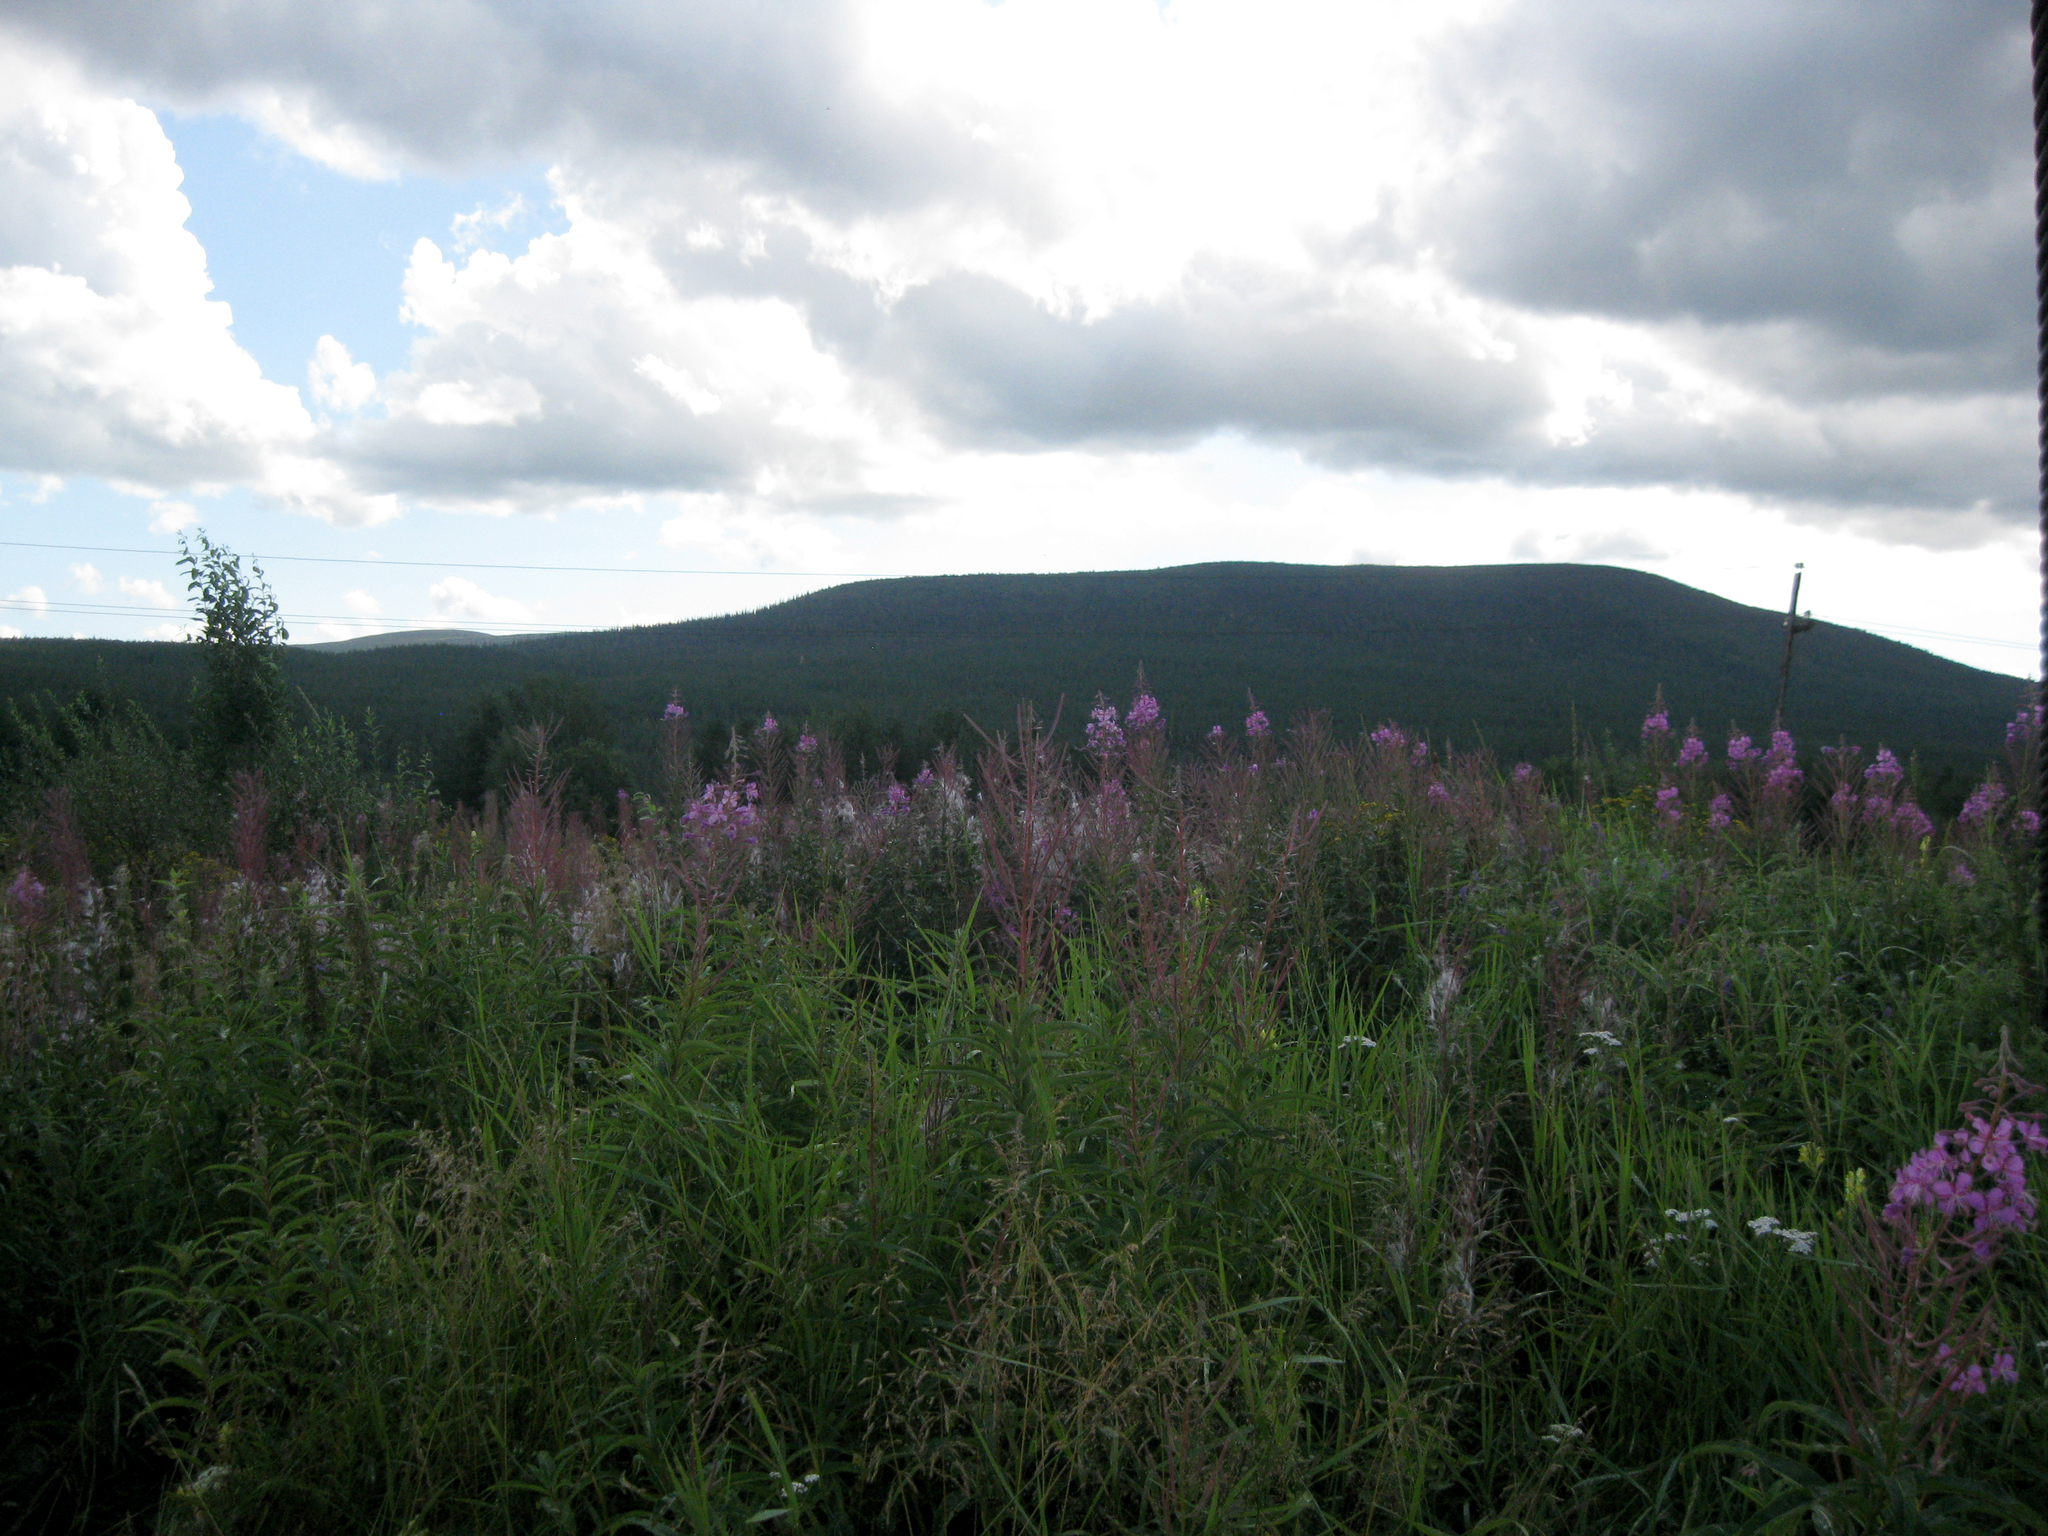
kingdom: Plantae
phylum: Tracheophyta
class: Magnoliopsida
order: Myrtales
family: Onagraceae
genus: Chamaenerion
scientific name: Chamaenerion angustifolium
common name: Fireweed
